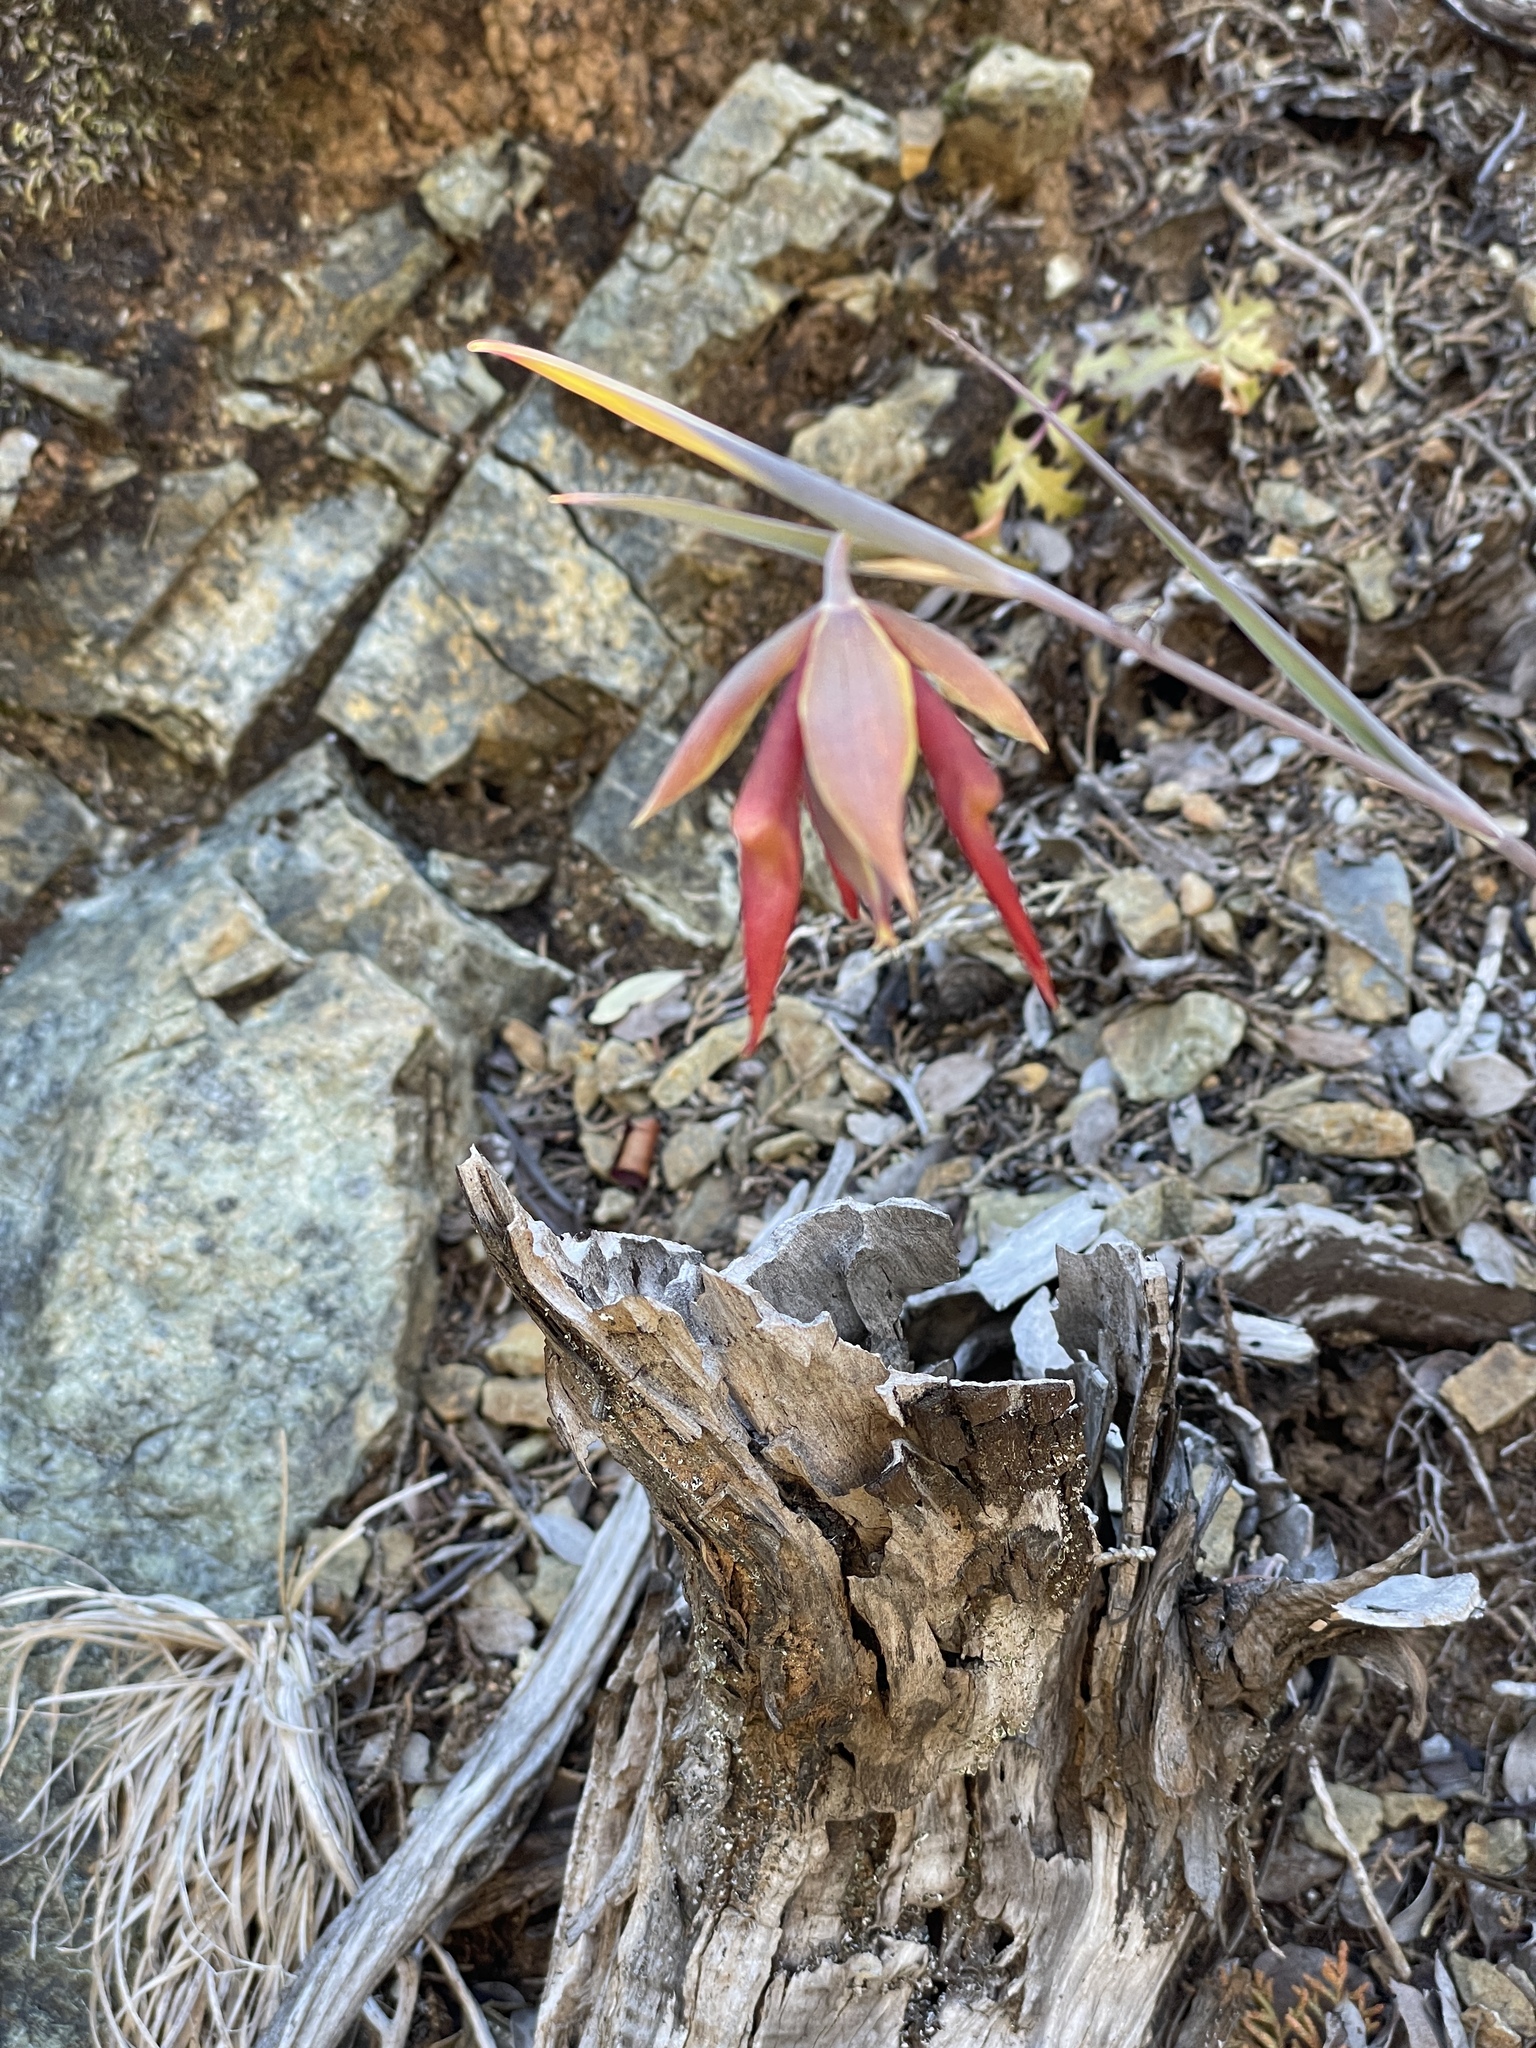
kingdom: Plantae
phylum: Tracheophyta
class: Liliopsida
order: Liliales
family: Liliaceae
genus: Calochortus
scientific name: Calochortus raichei
